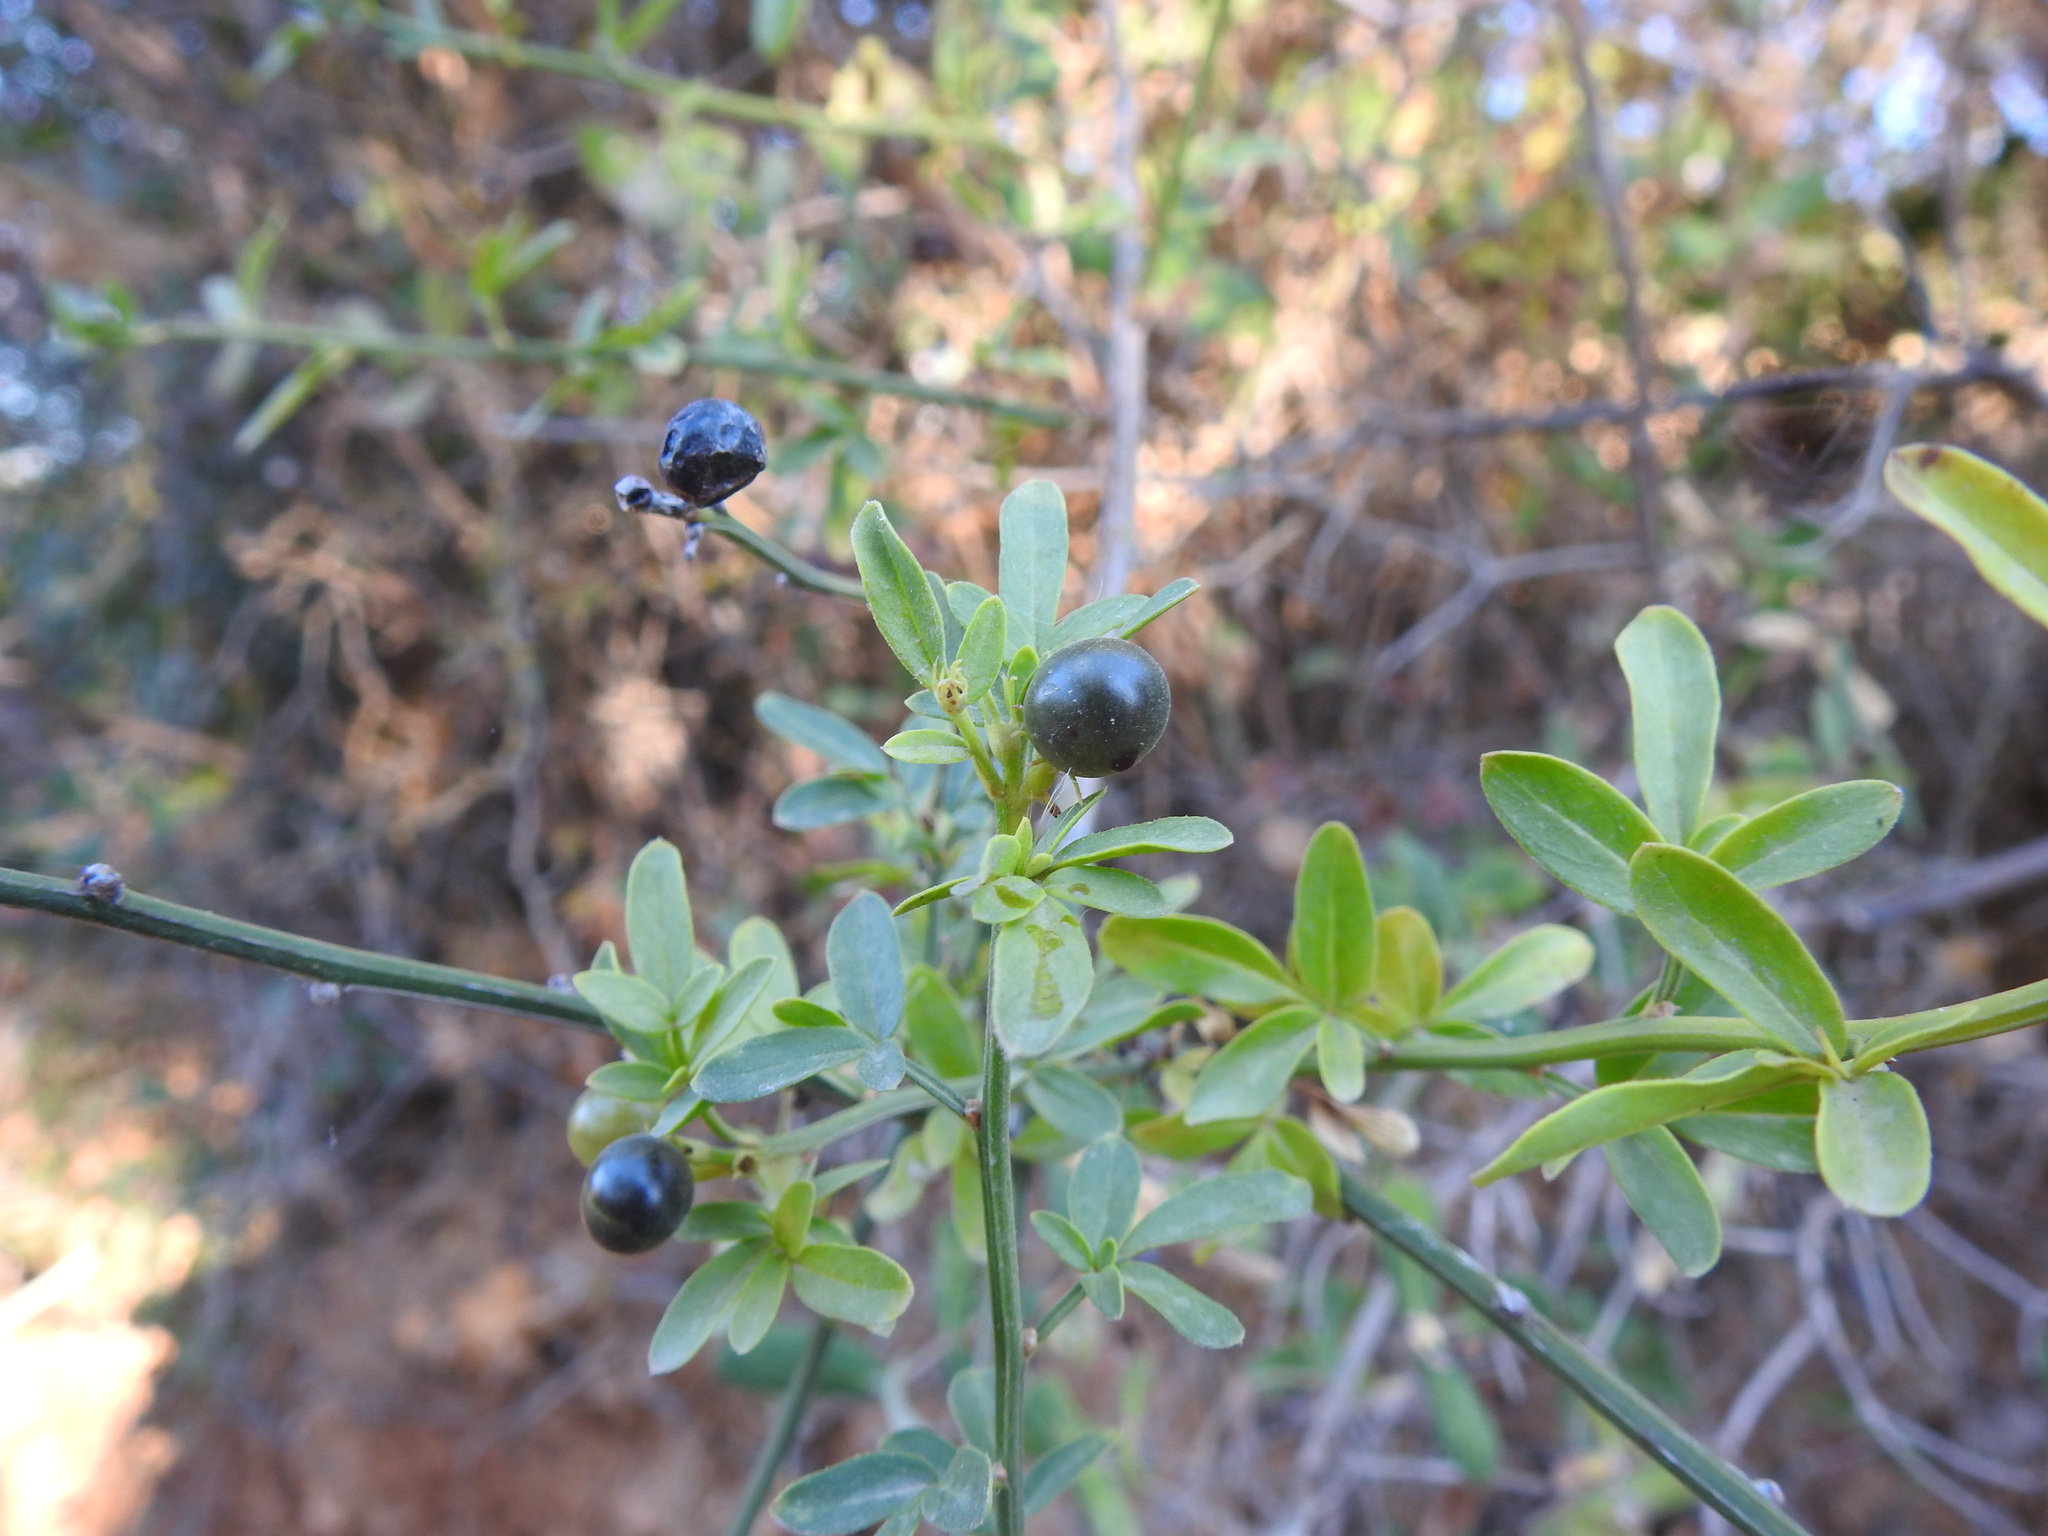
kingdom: Plantae
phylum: Tracheophyta
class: Magnoliopsida
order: Lamiales
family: Oleaceae
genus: Chrysojasminum
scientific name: Chrysojasminum fruticans
